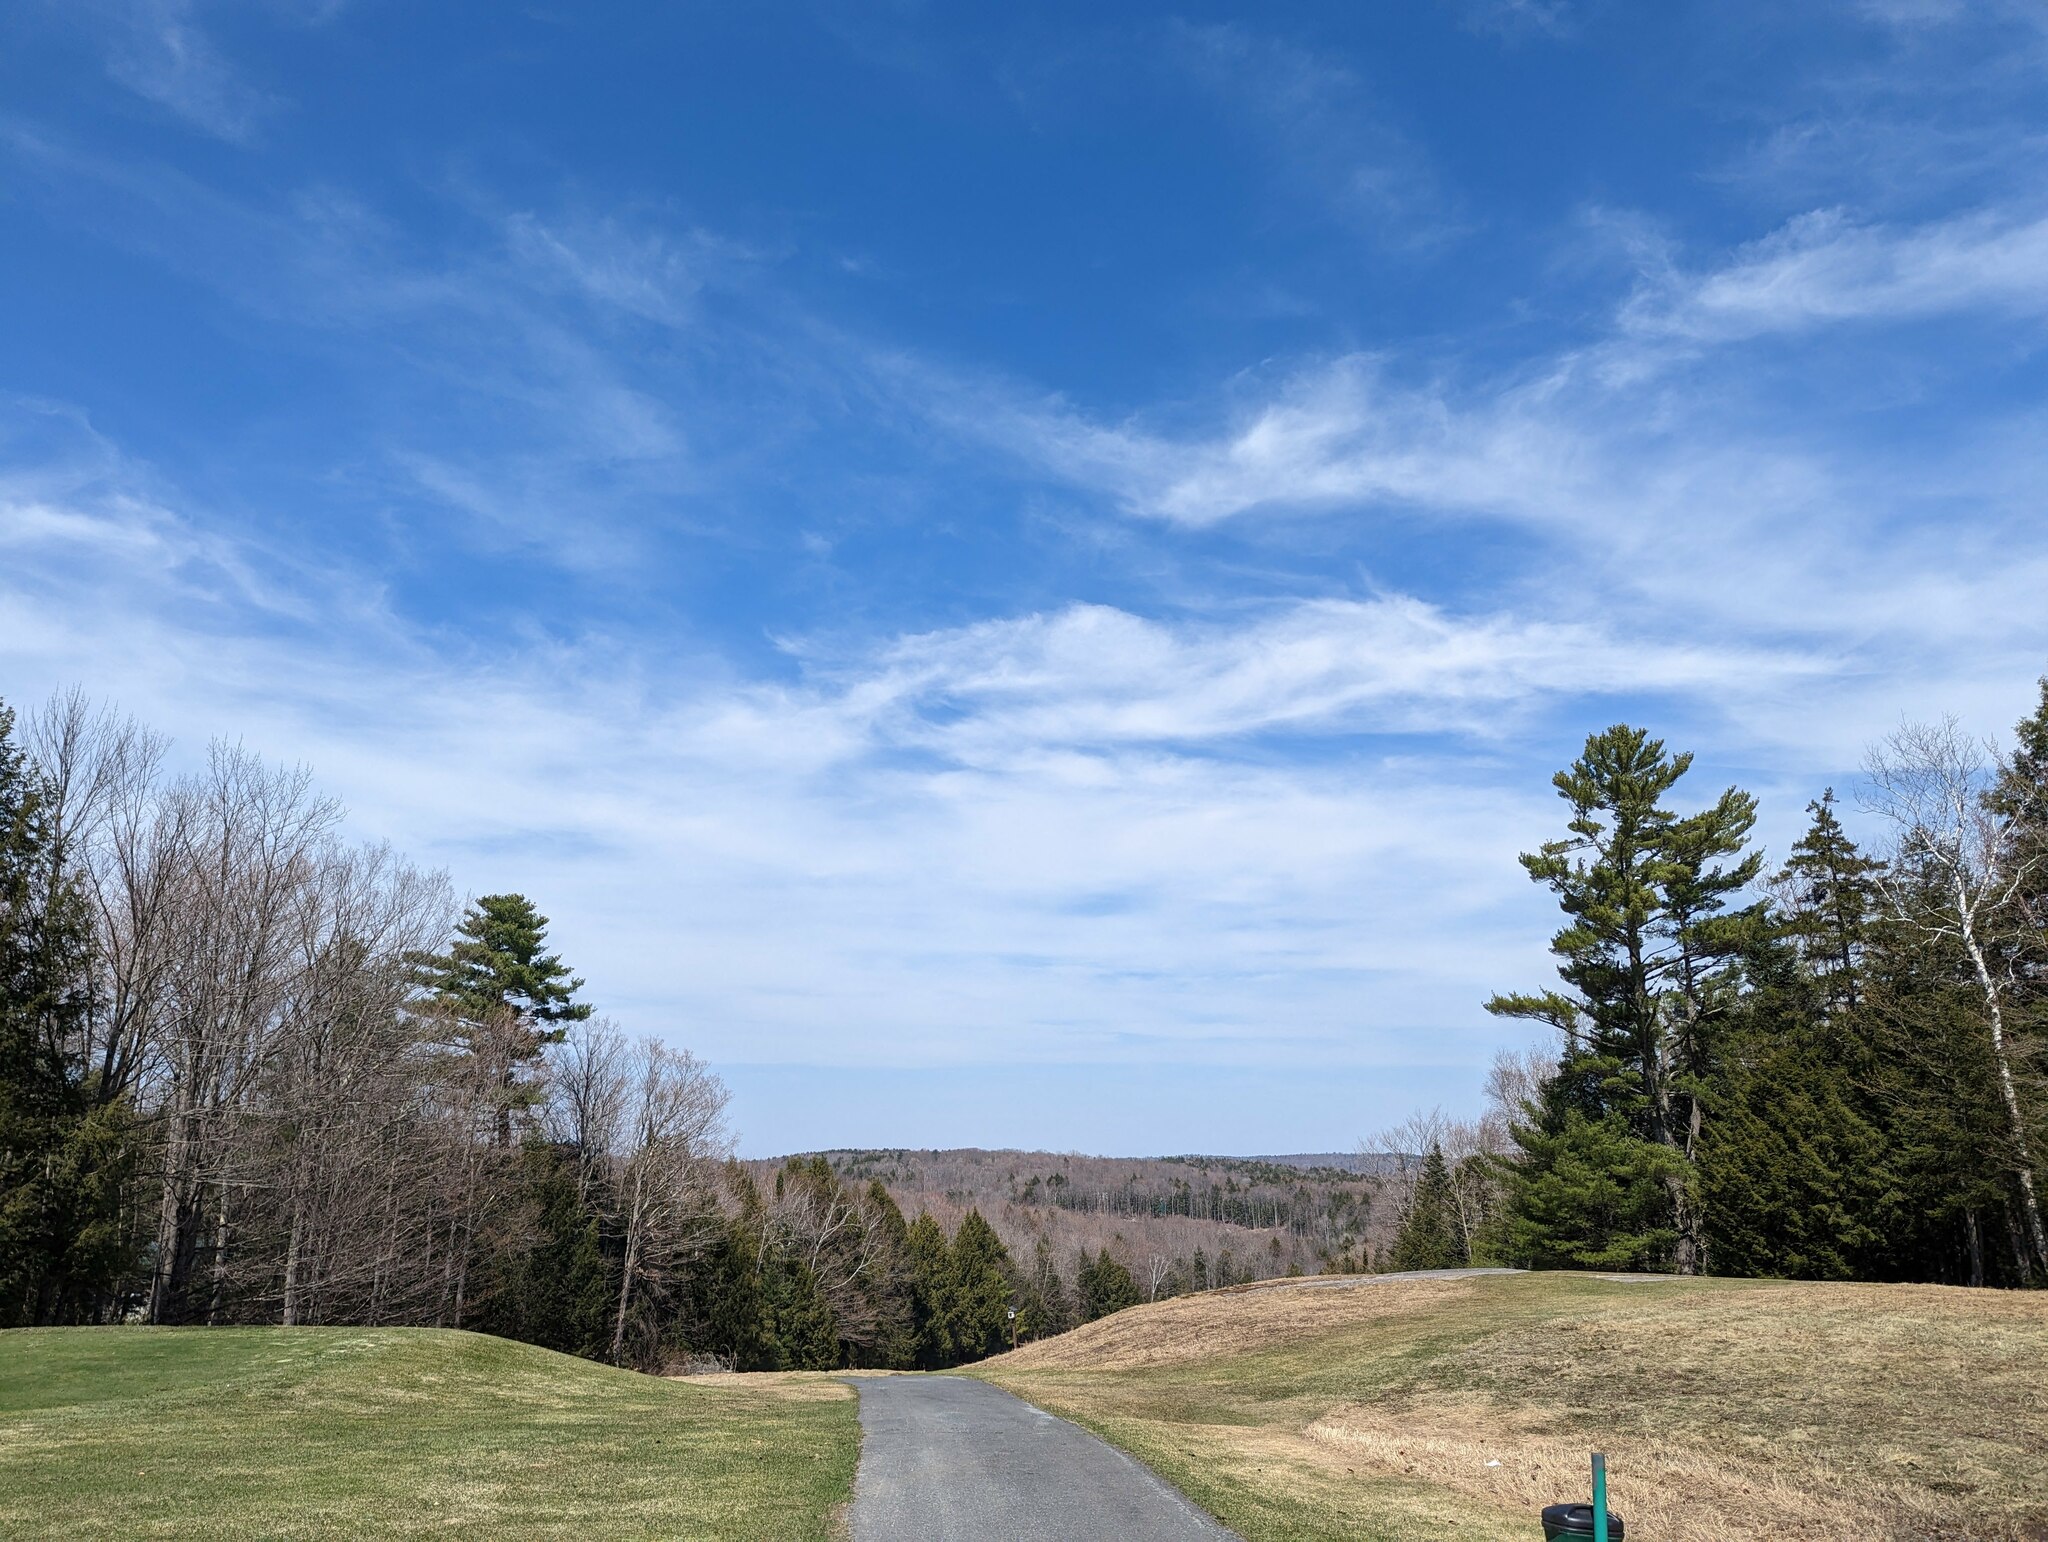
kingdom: Plantae
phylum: Tracheophyta
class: Pinopsida
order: Pinales
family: Pinaceae
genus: Pinus
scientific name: Pinus strobus
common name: Weymouth pine
